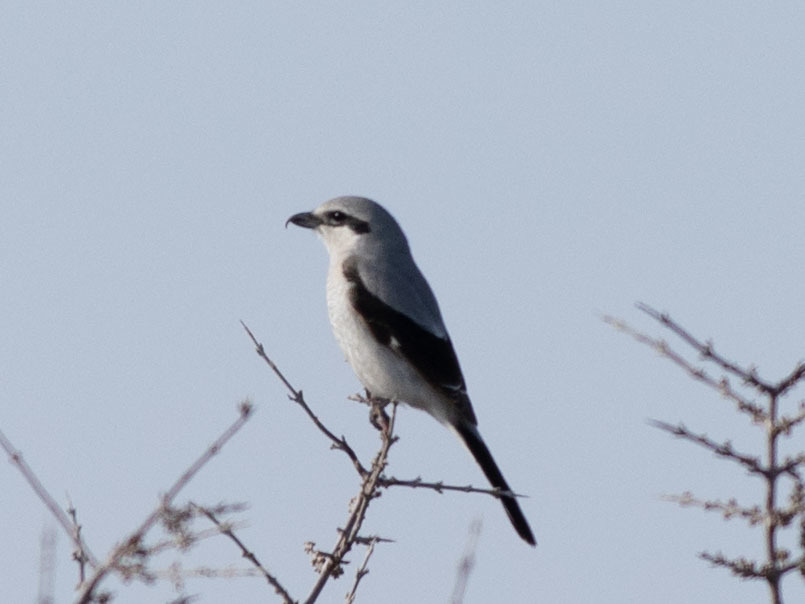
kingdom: Animalia
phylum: Chordata
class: Aves
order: Passeriformes
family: Laniidae
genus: Lanius
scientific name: Lanius borealis
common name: Northern shrike
